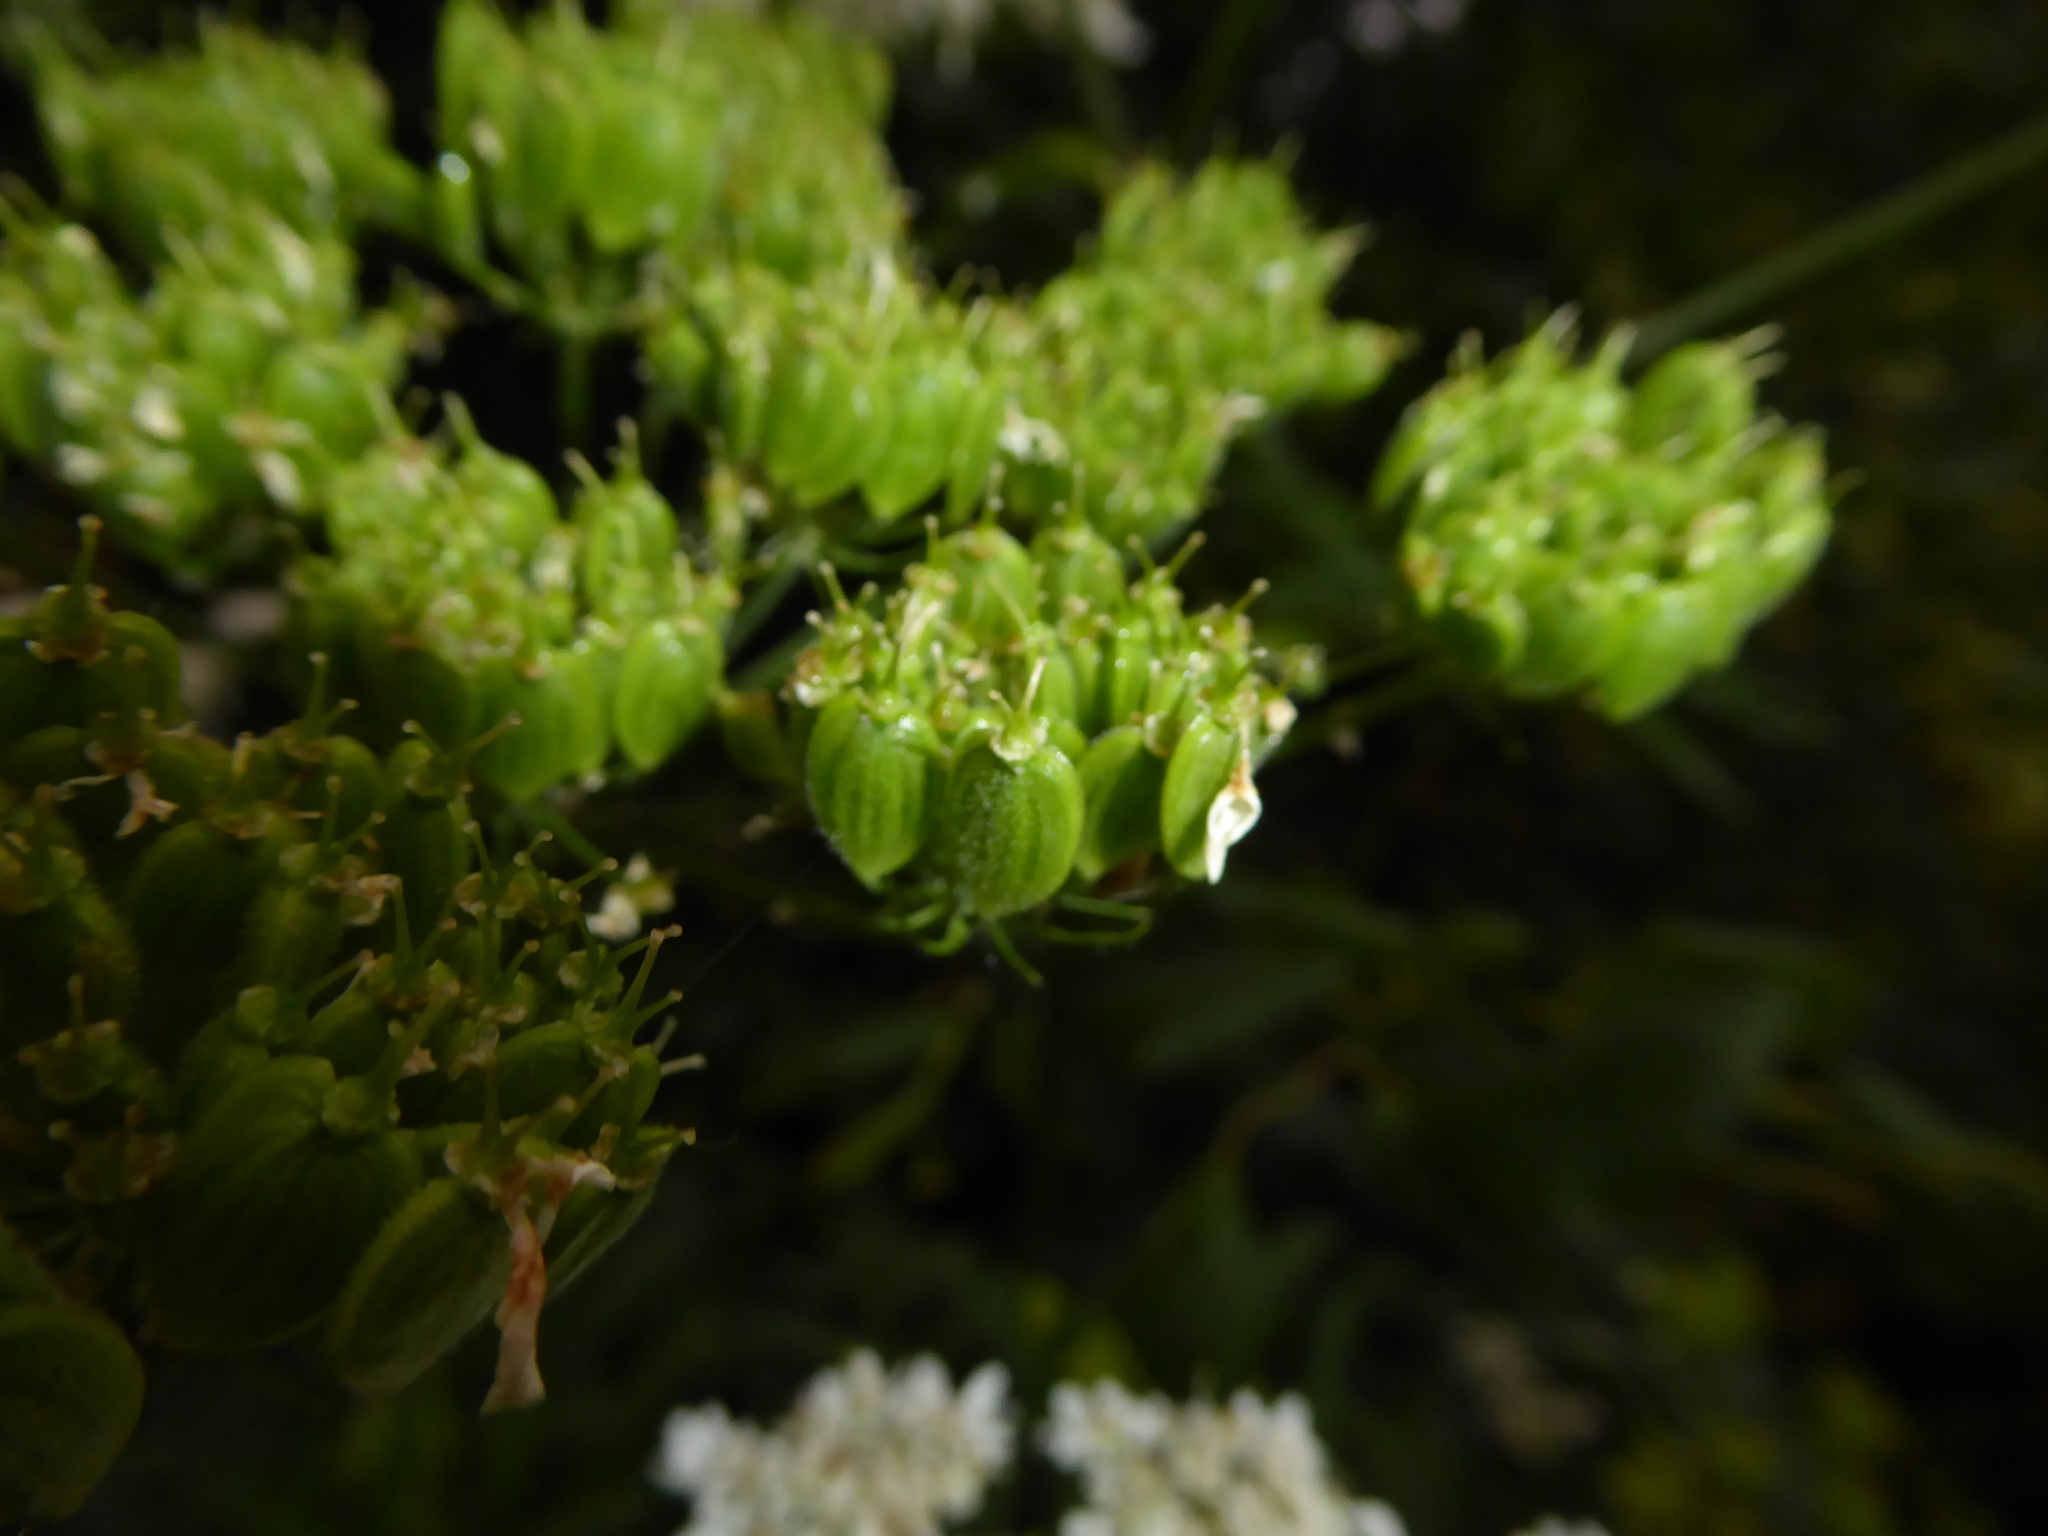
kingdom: Plantae
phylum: Tracheophyta
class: Magnoliopsida
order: Apiales
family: Apiaceae
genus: Heracleum
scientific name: Heracleum sphondylium
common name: Hogweed
